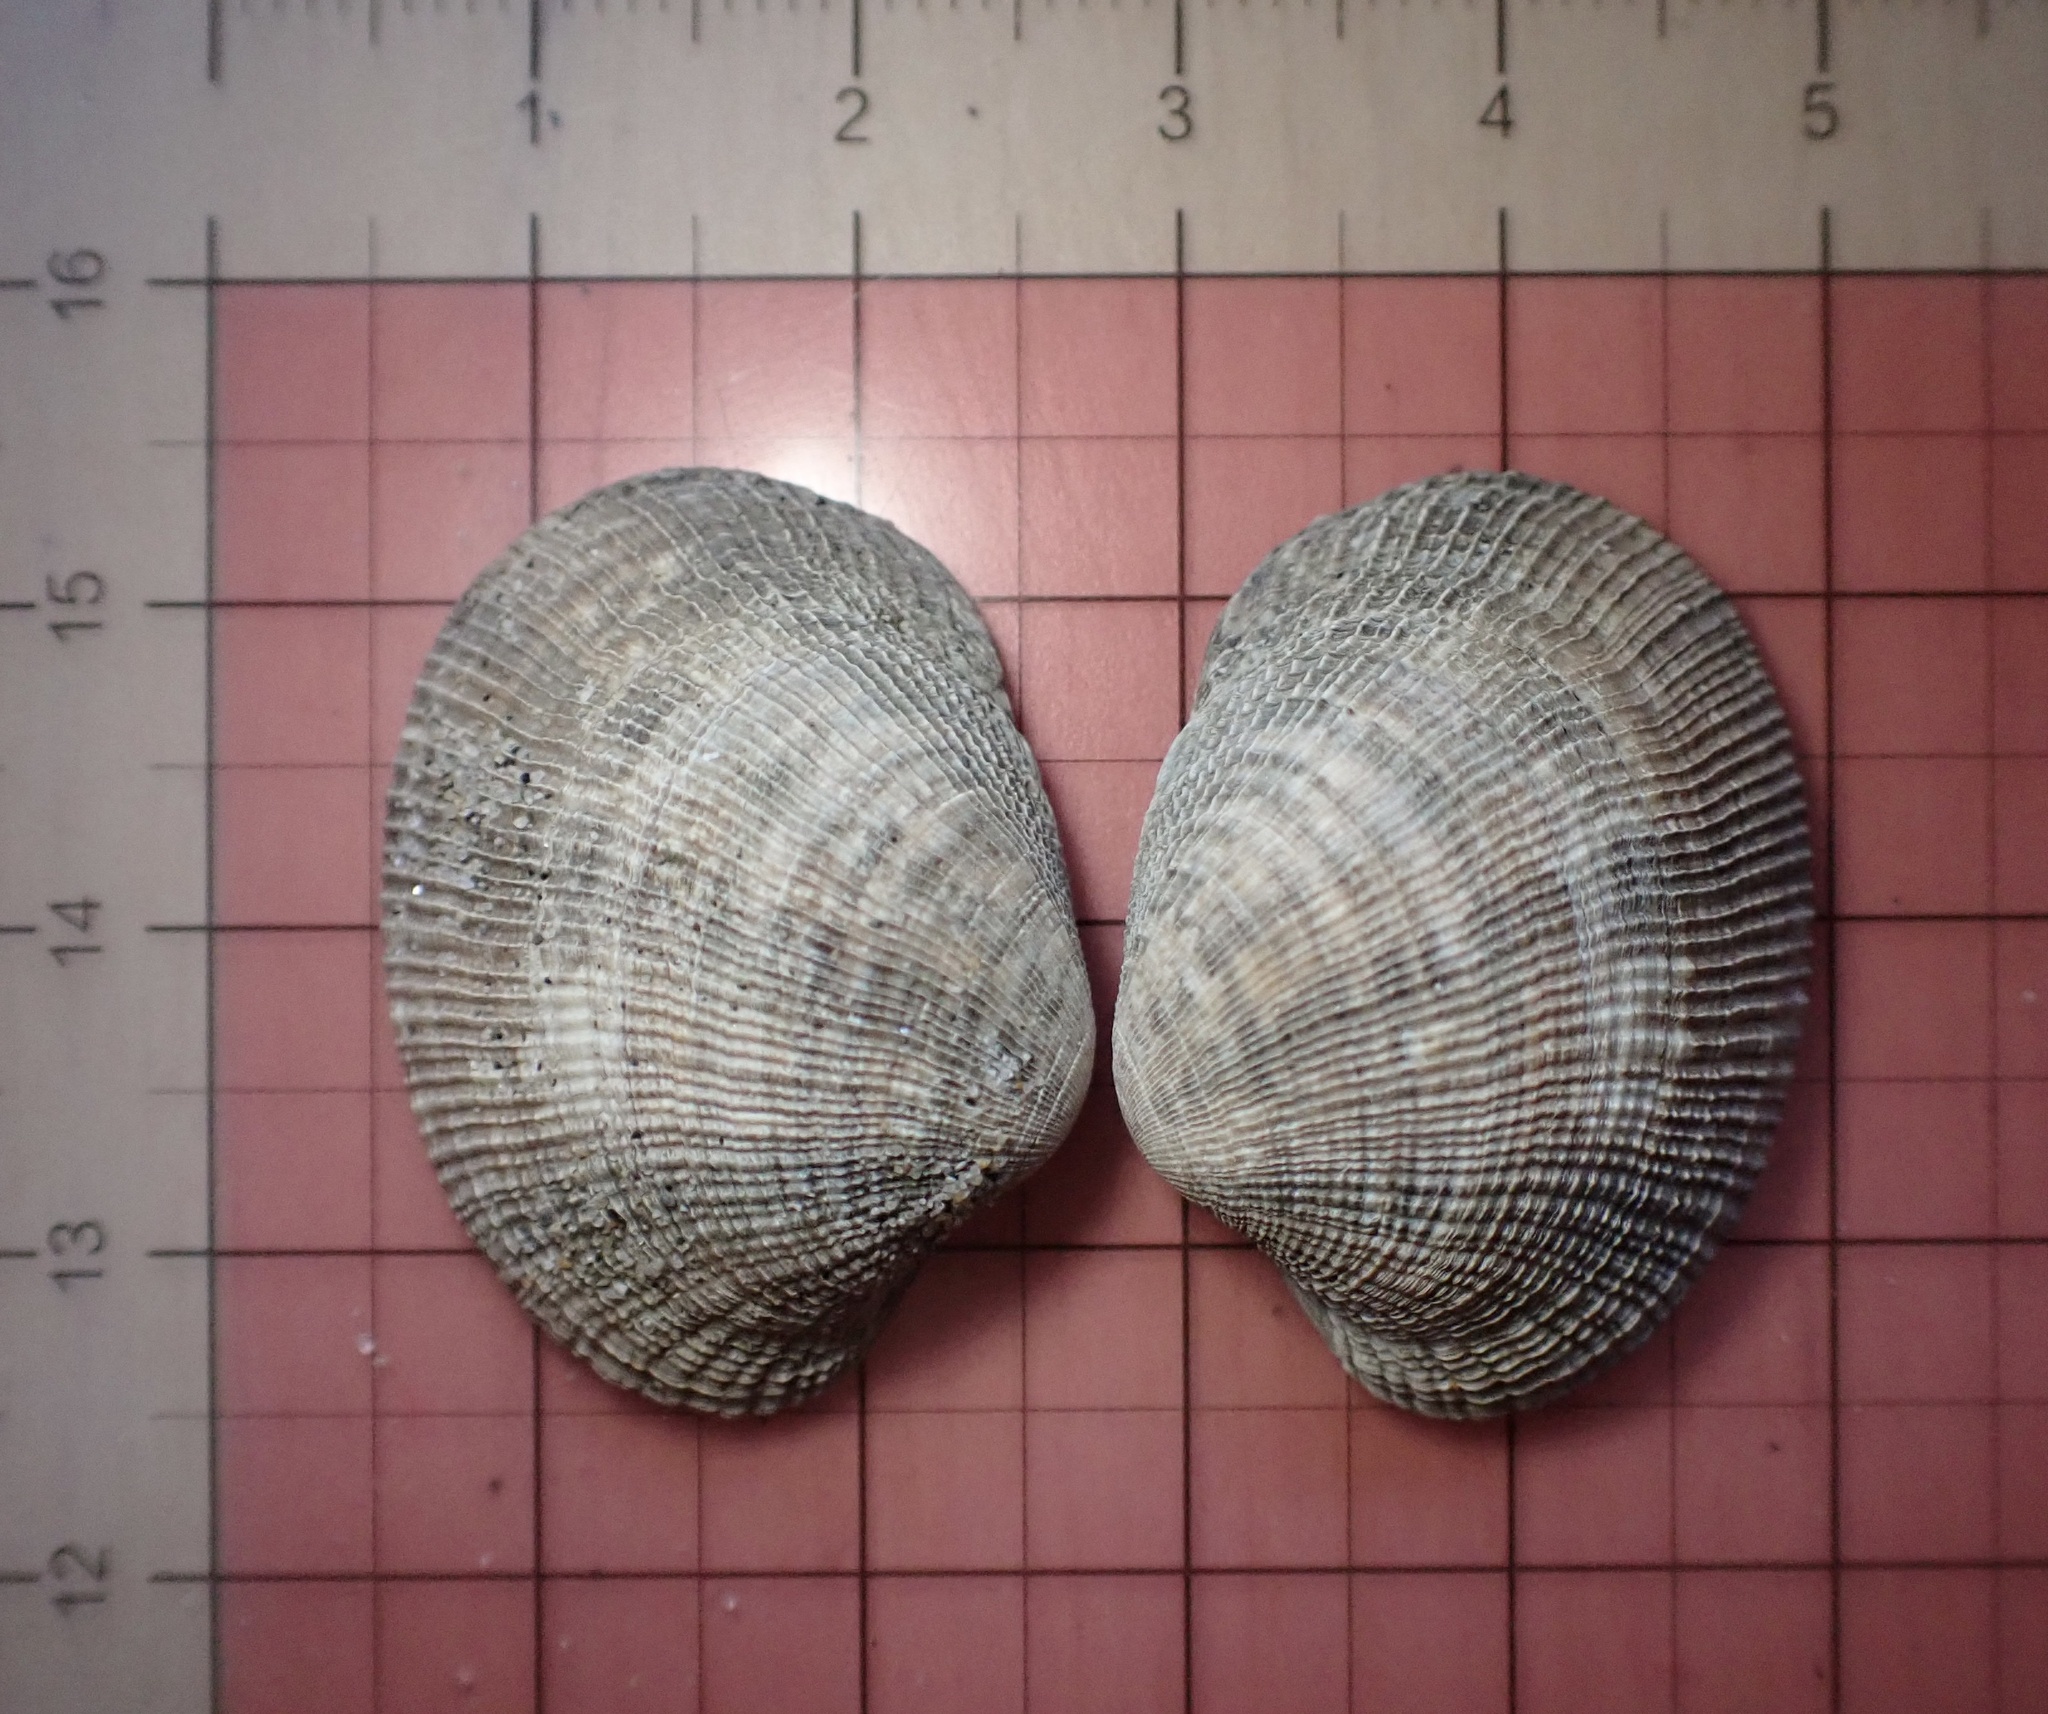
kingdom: Animalia
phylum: Mollusca
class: Bivalvia
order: Venerida
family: Veneridae
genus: Ruditapes
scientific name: Ruditapes philippinarum
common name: Manila clam
